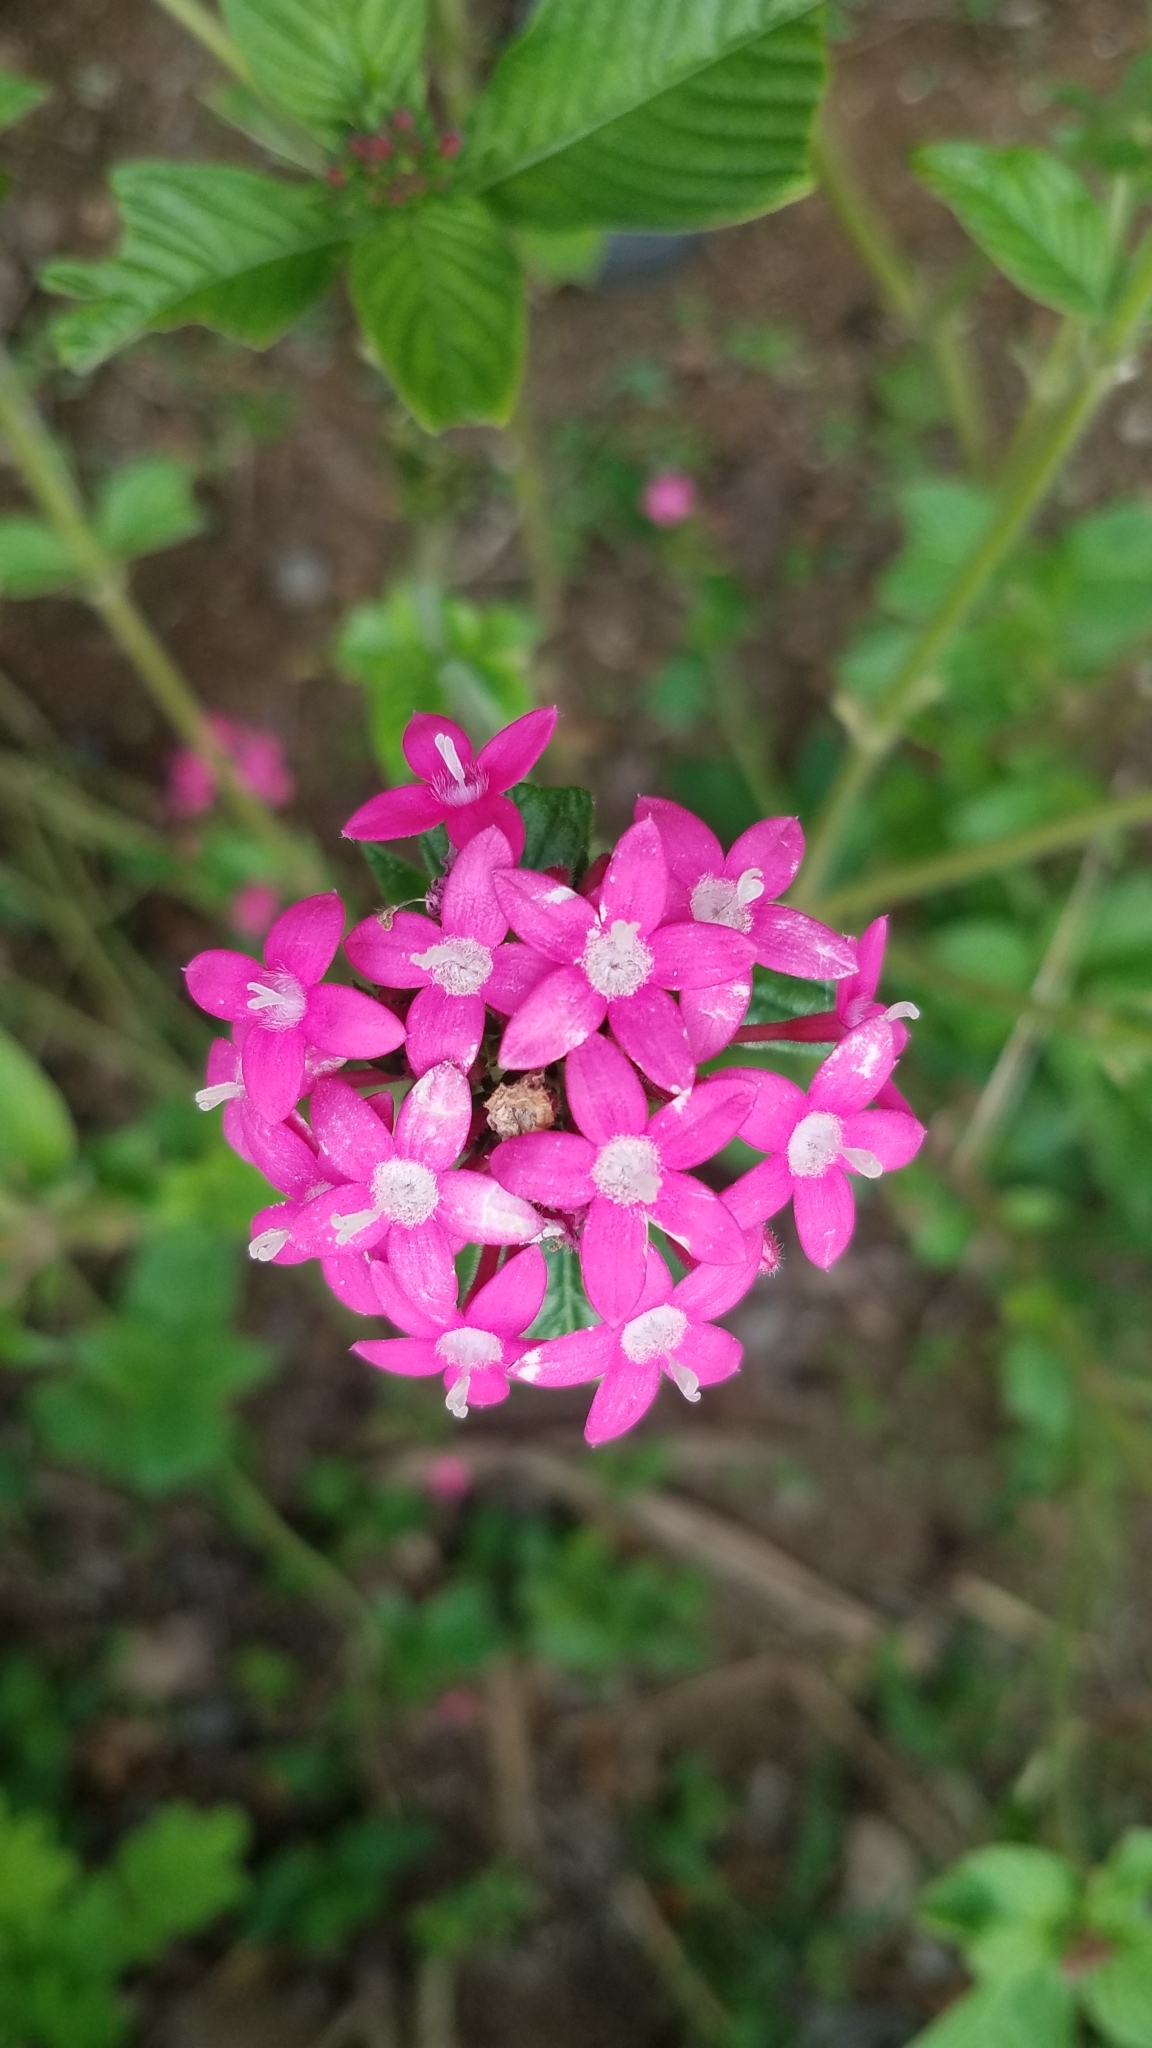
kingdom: Plantae
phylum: Tracheophyta
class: Magnoliopsida
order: Gentianales
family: Rubiaceae
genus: Pentas
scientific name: Pentas lanceolata
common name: Egyptian starcluster
